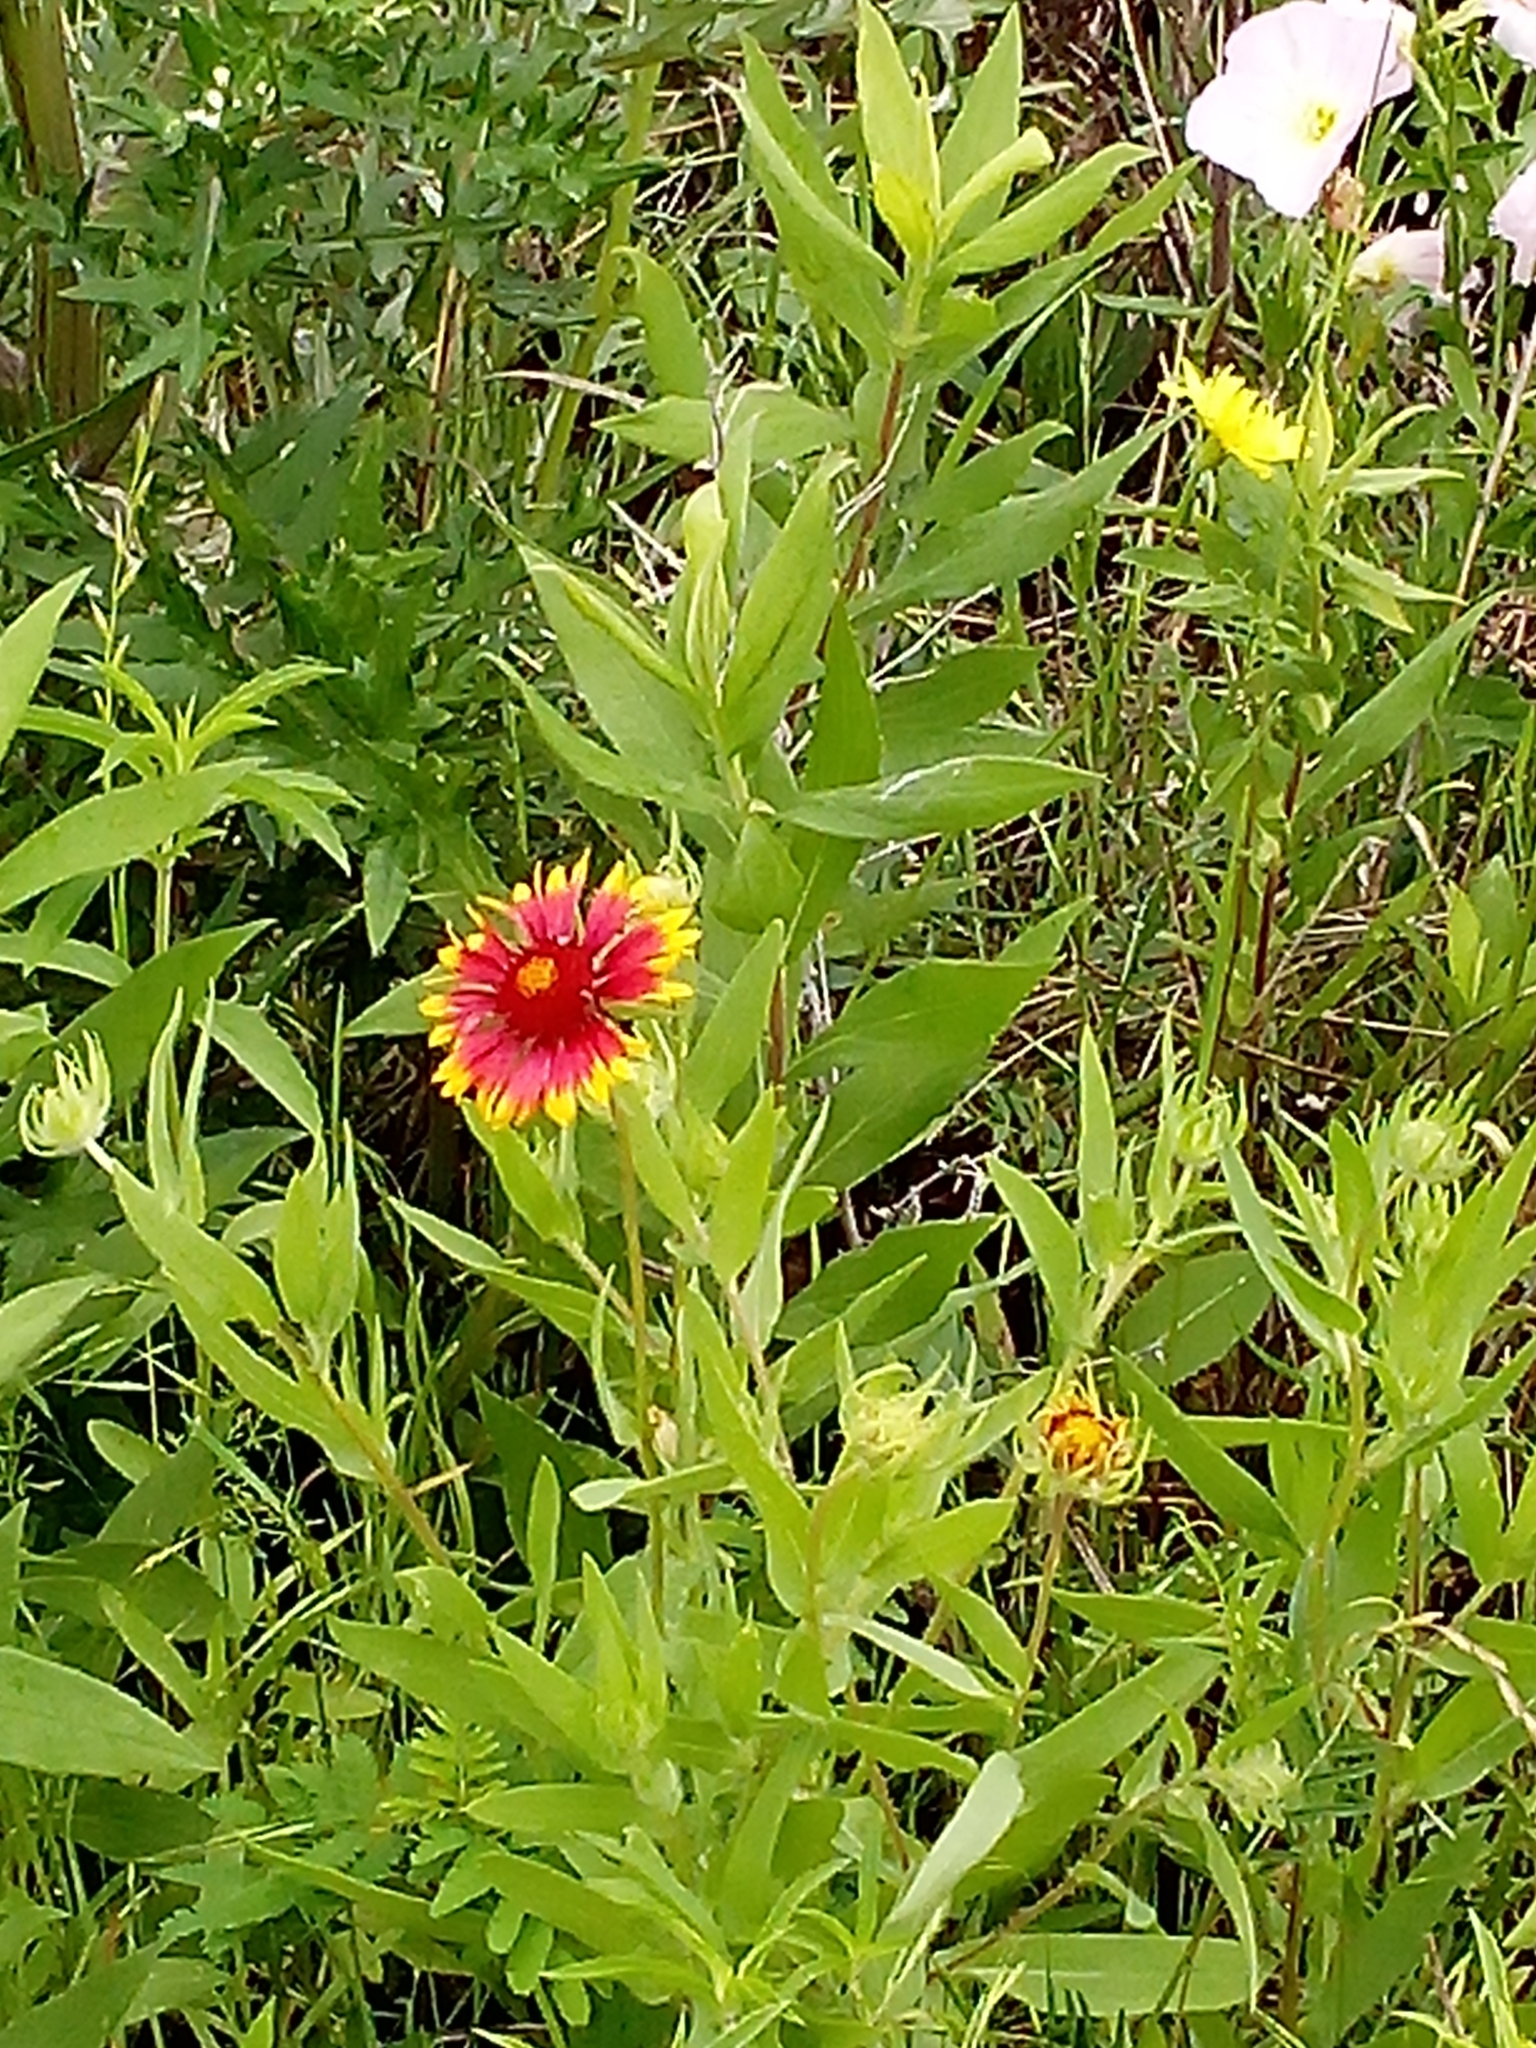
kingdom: Plantae
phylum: Tracheophyta
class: Magnoliopsida
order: Asterales
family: Asteraceae
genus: Gaillardia
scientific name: Gaillardia pulchella
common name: Firewheel
